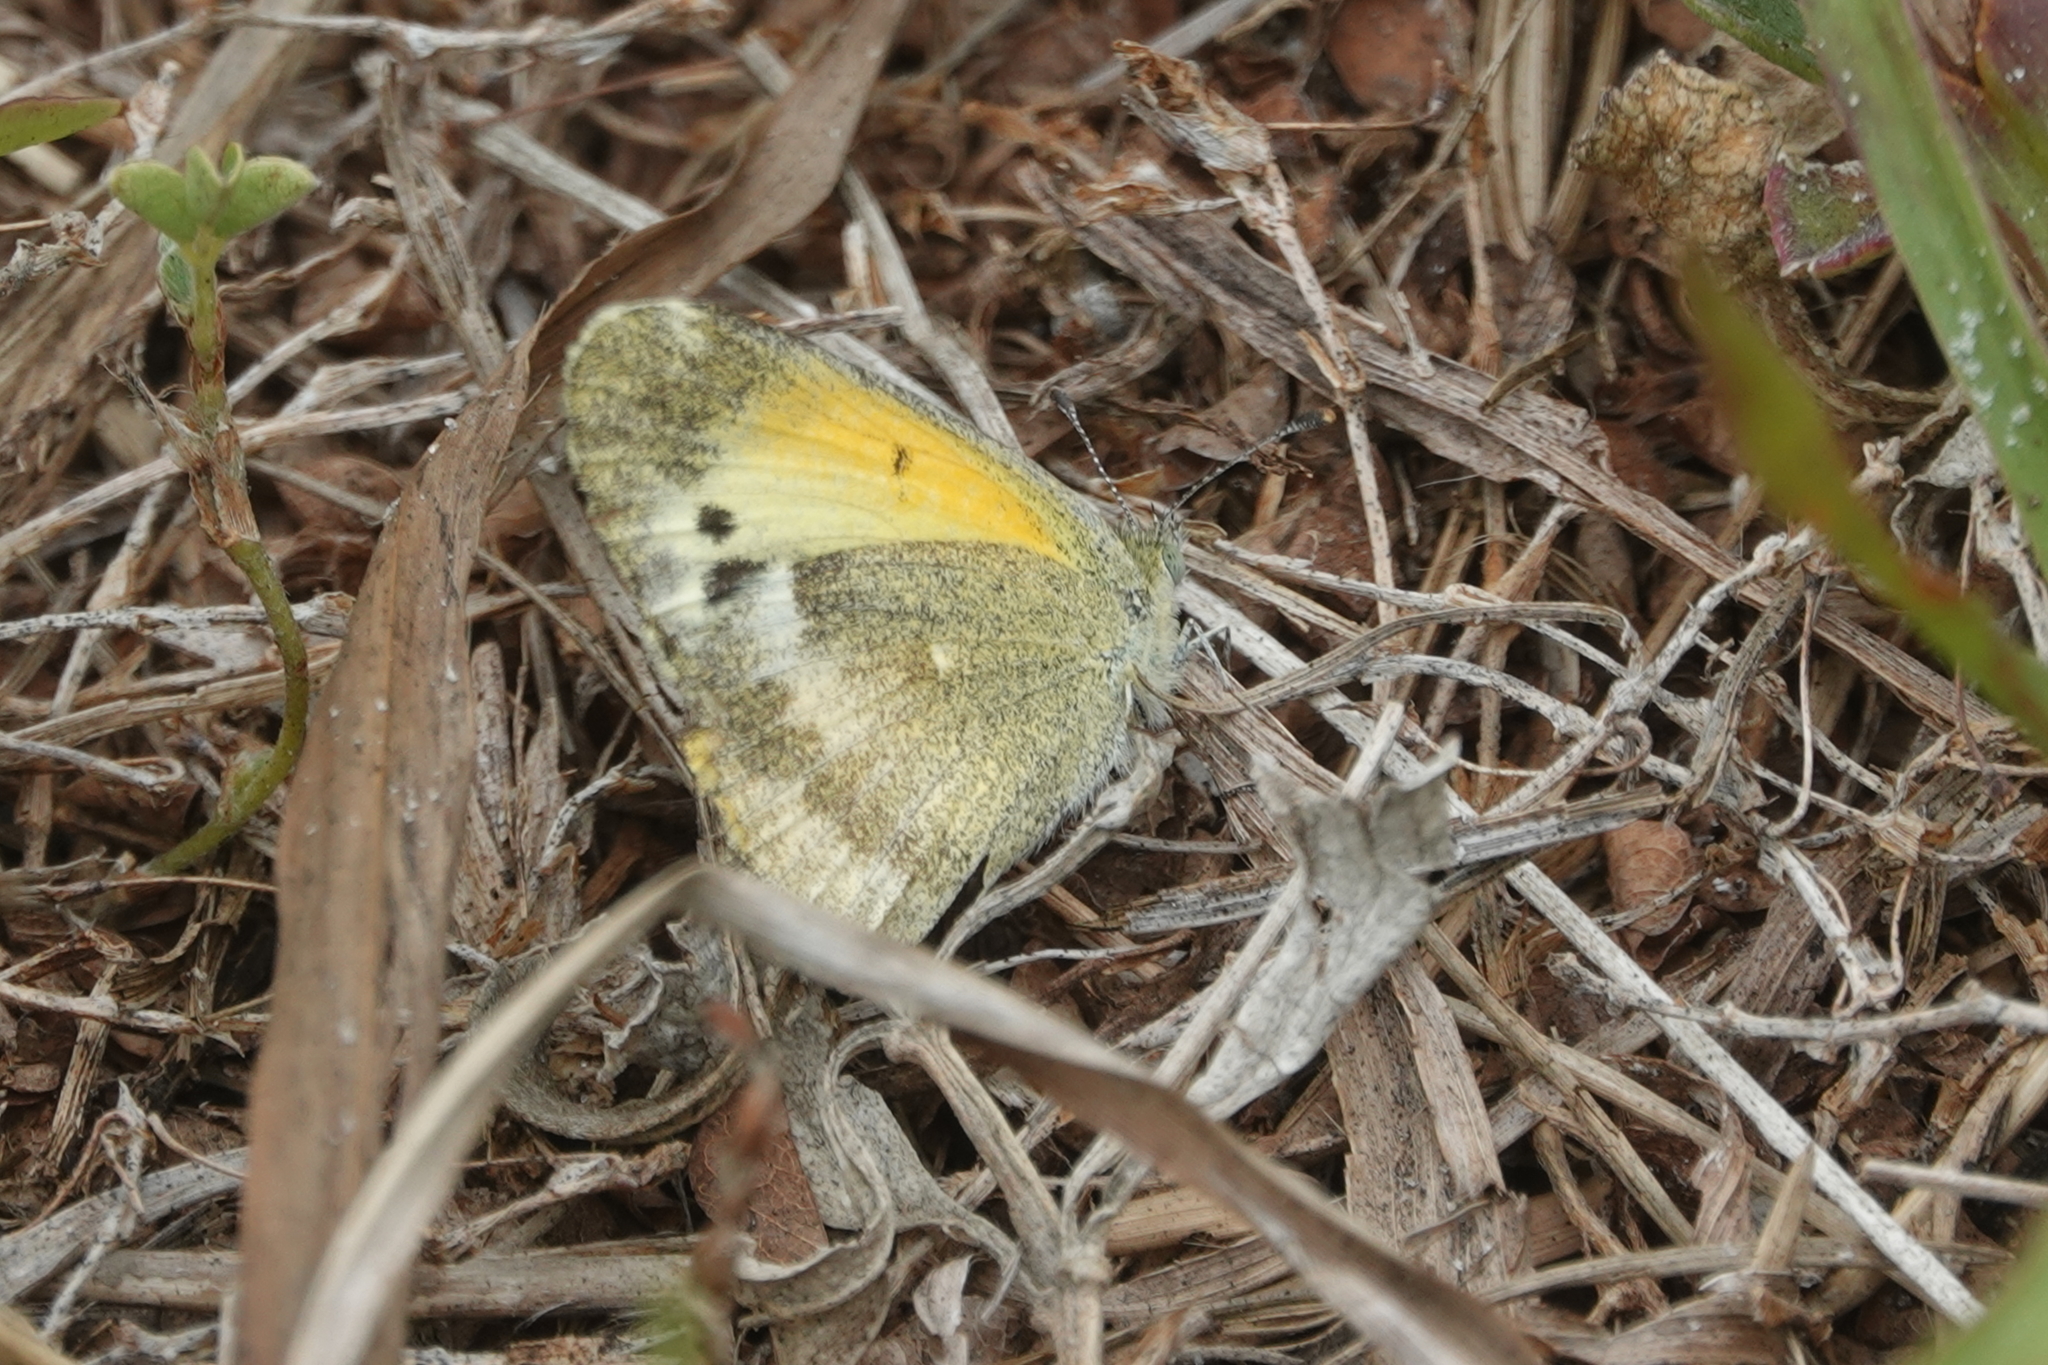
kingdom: Animalia
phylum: Arthropoda
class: Insecta
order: Lepidoptera
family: Pieridae
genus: Nathalis
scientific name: Nathalis iole
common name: Dainty sulphur
